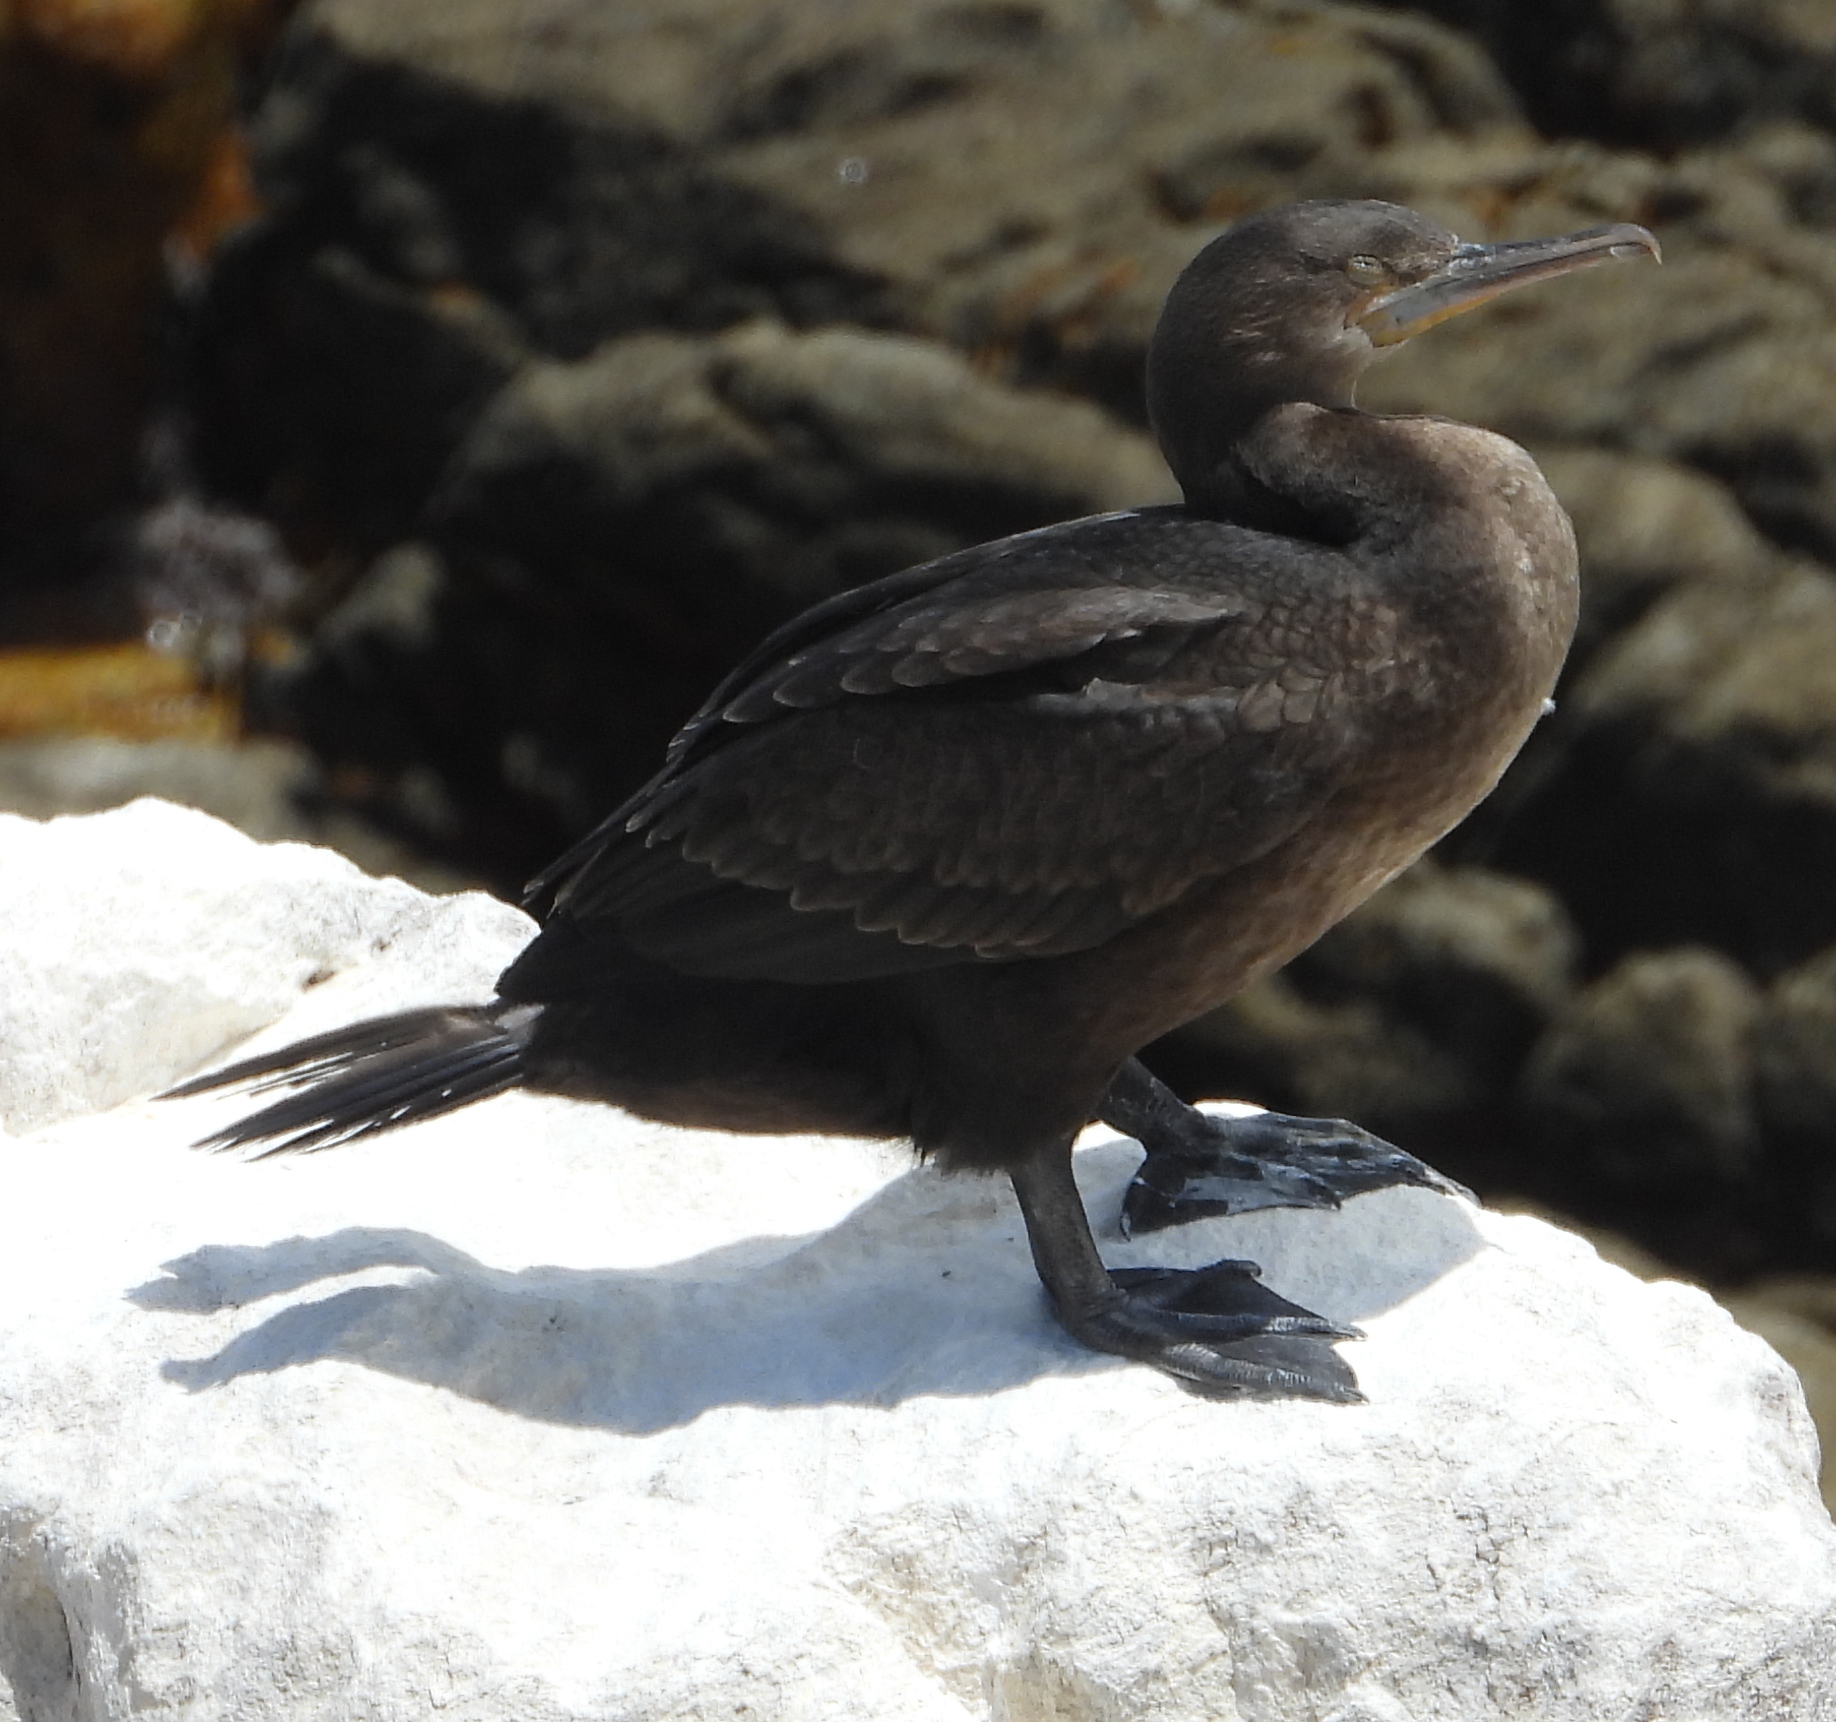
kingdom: Animalia
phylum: Chordata
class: Aves
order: Suliformes
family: Phalacrocoracidae
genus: Phalacrocorax
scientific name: Phalacrocorax capensis
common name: Cape cormorant
